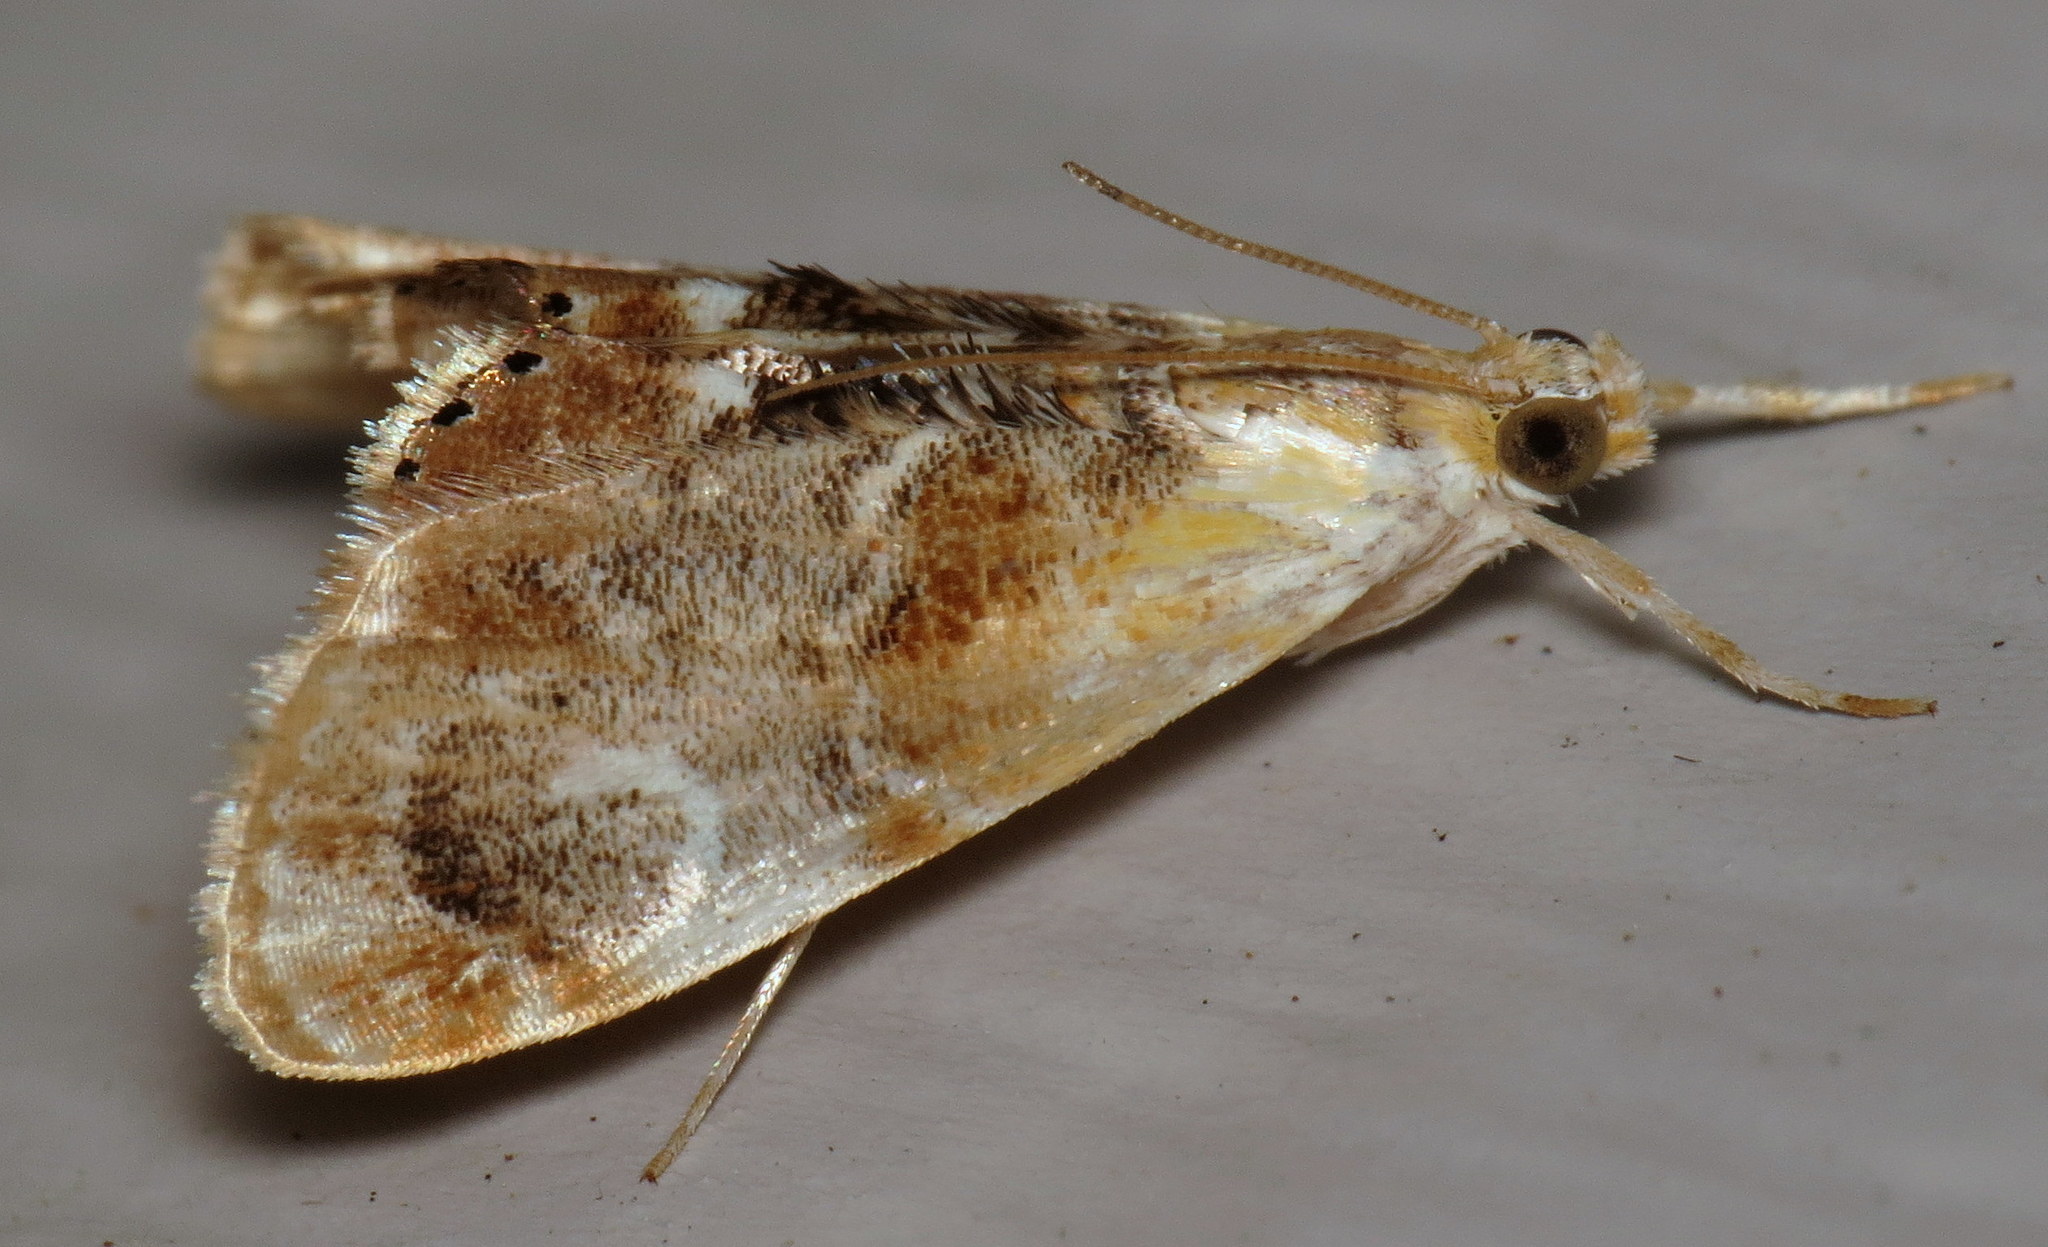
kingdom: Animalia
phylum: Arthropoda
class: Insecta
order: Lepidoptera
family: Crambidae
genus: Dicymolomia
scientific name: Dicymolomia julianalis
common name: Julia's dicymolomia moth
